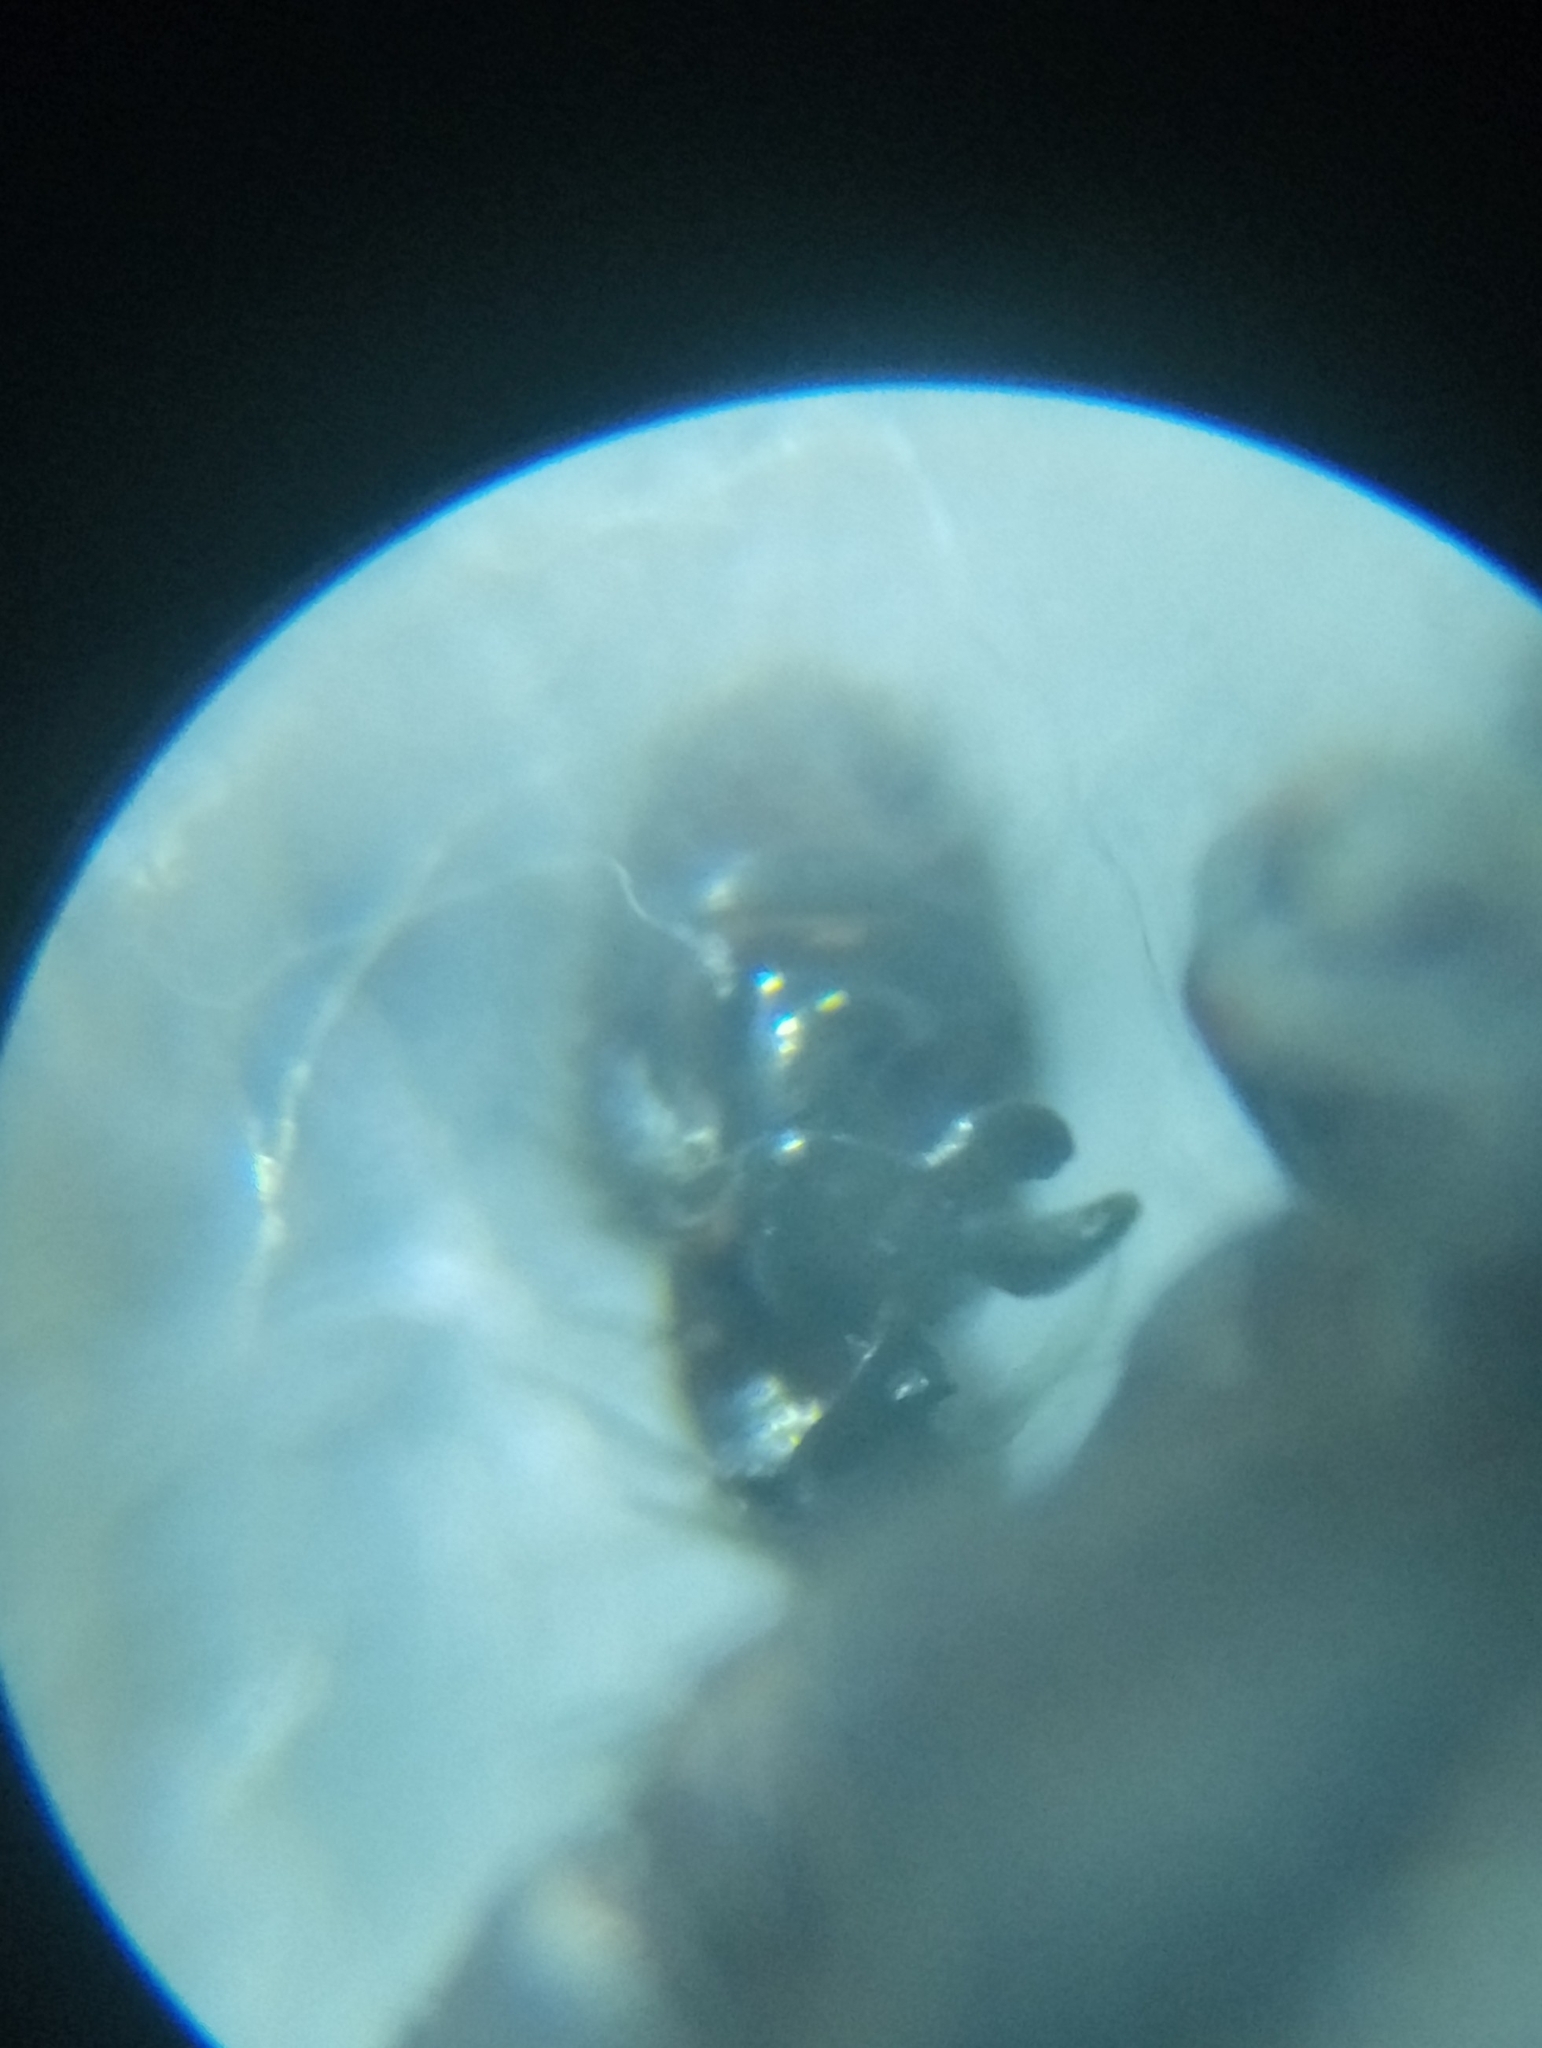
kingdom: Animalia
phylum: Arthropoda
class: Arachnida
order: Araneae
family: Thomisidae
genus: Xysticus
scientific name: Xysticus kochi
